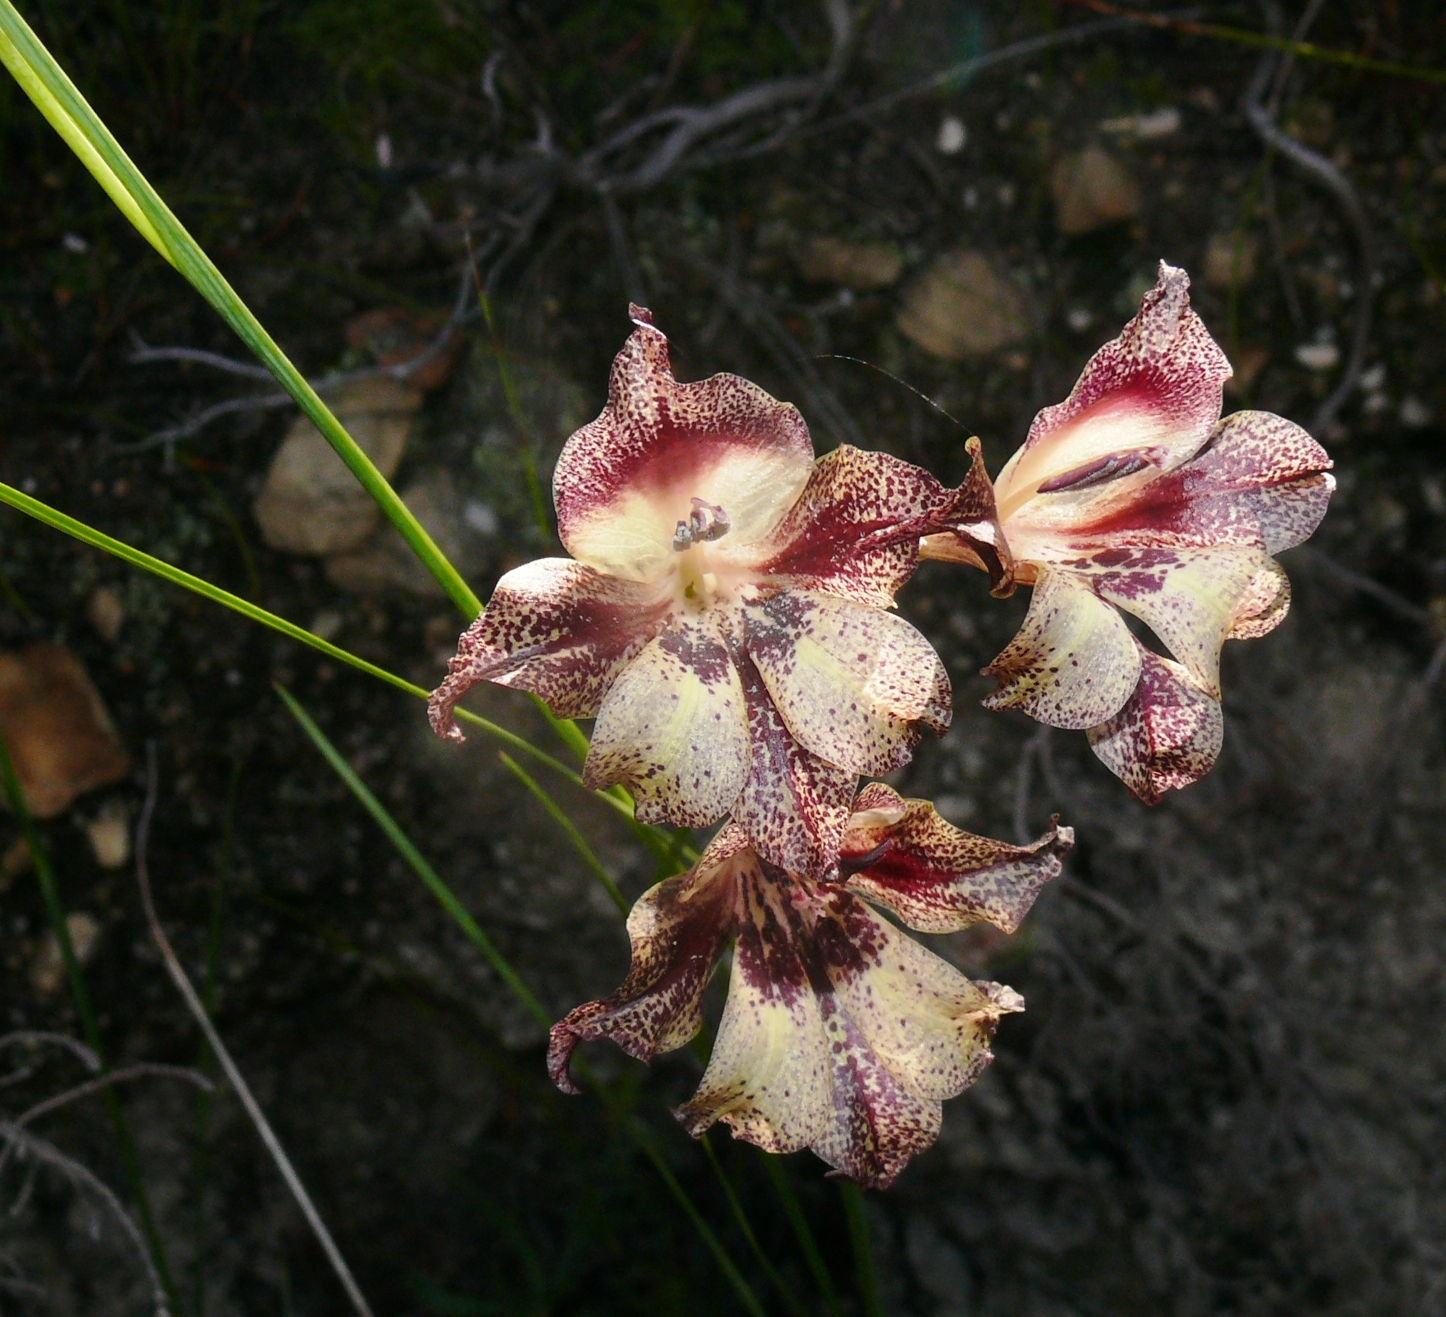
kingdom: Plantae
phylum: Tracheophyta
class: Liliopsida
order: Asparagales
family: Iridaceae
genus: Gladiolus
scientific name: Gladiolus maculatus
